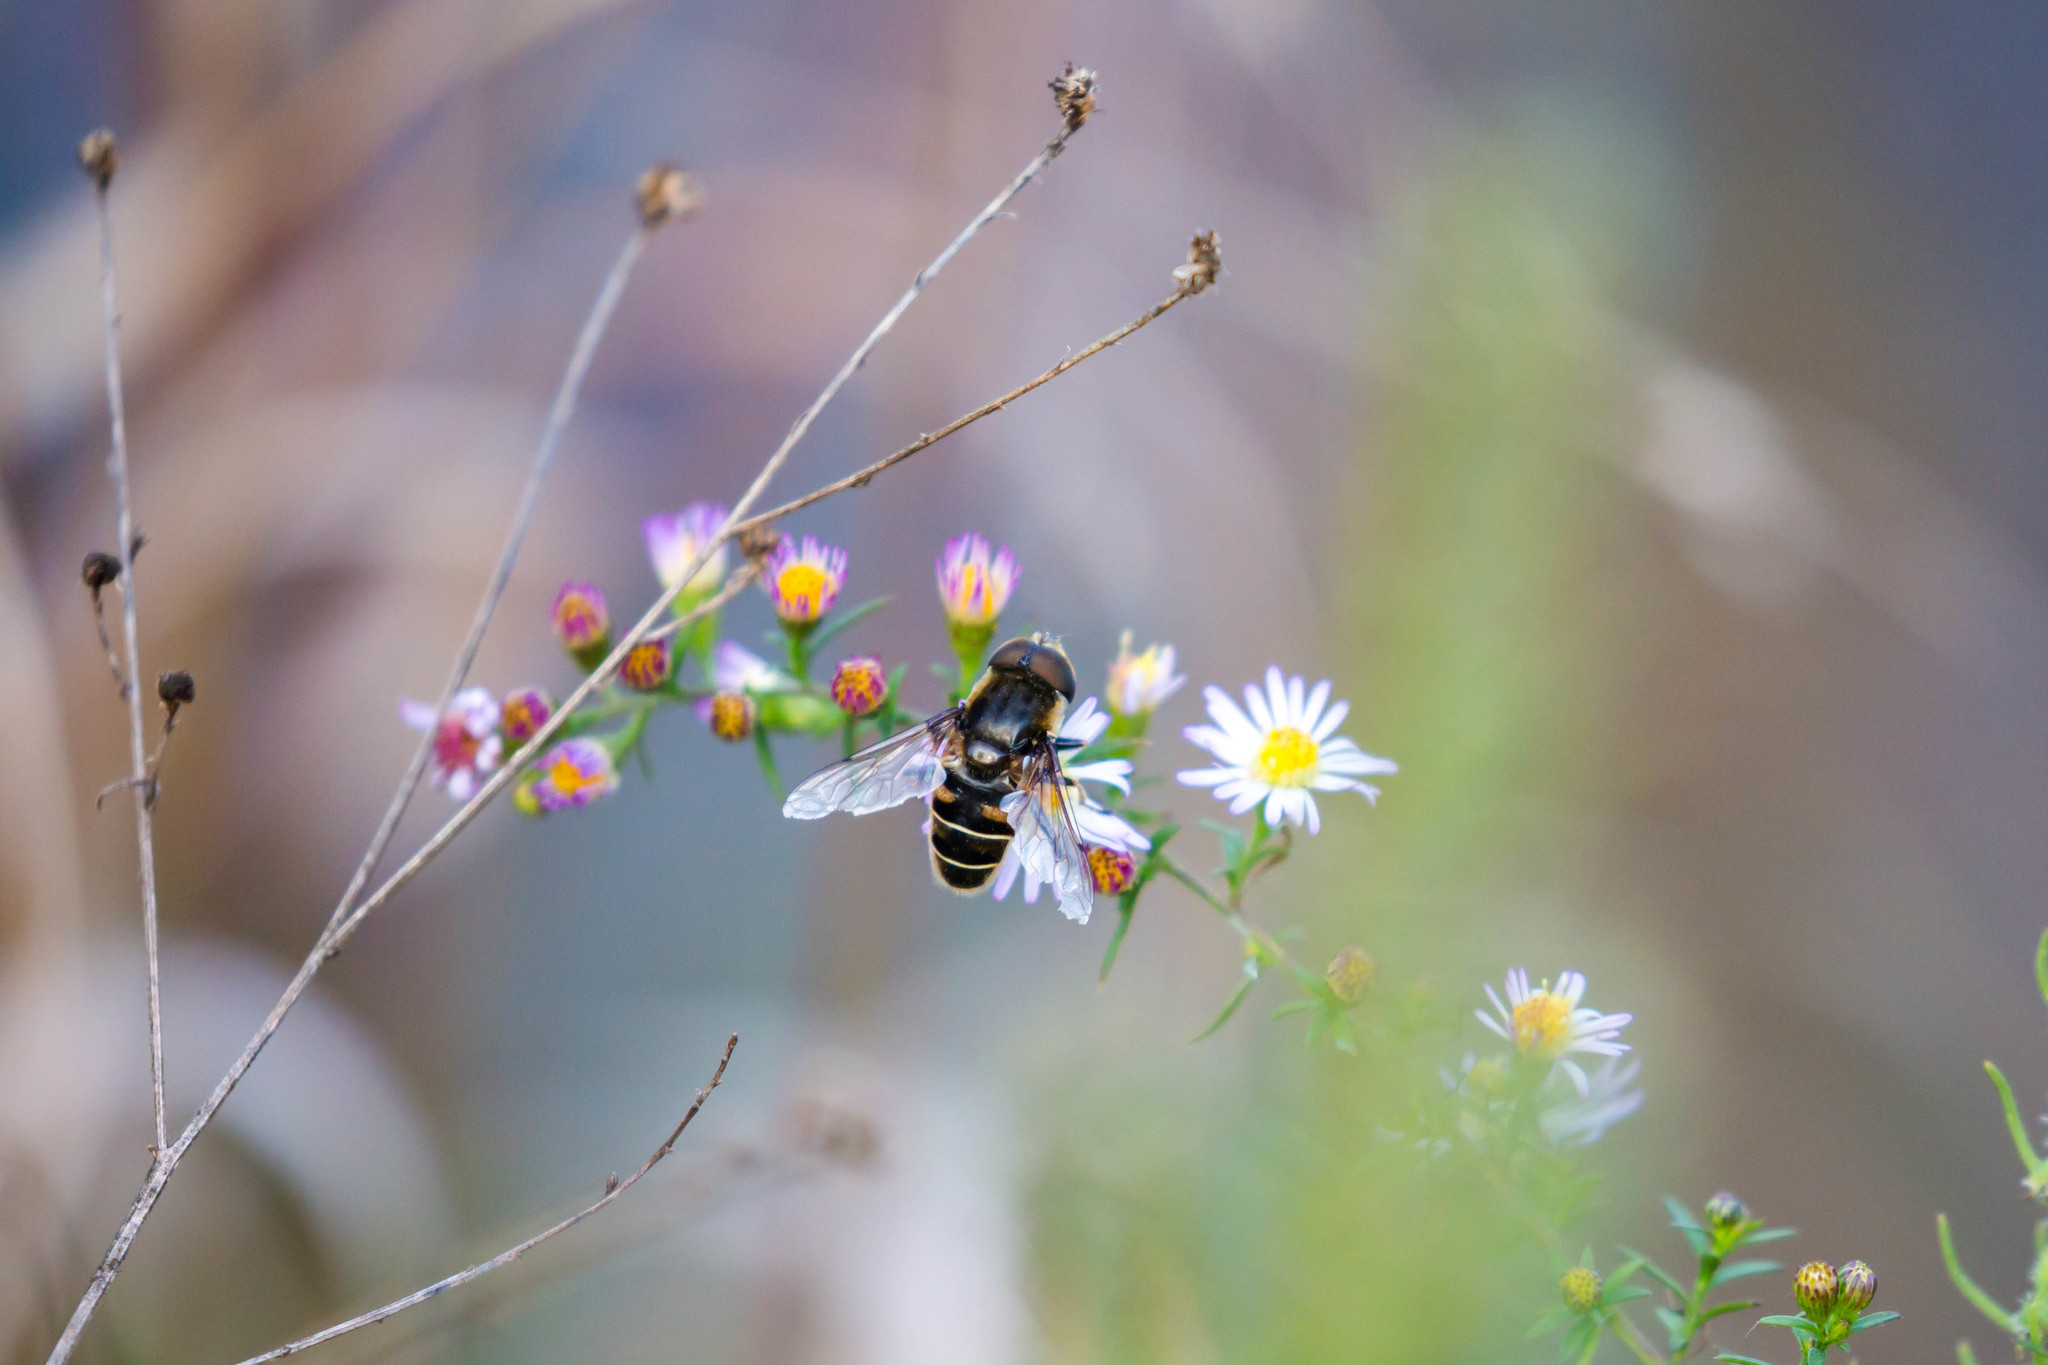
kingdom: Animalia
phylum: Arthropoda
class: Insecta
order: Diptera
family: Syrphidae
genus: Eristalis
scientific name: Eristalis dimidiata
